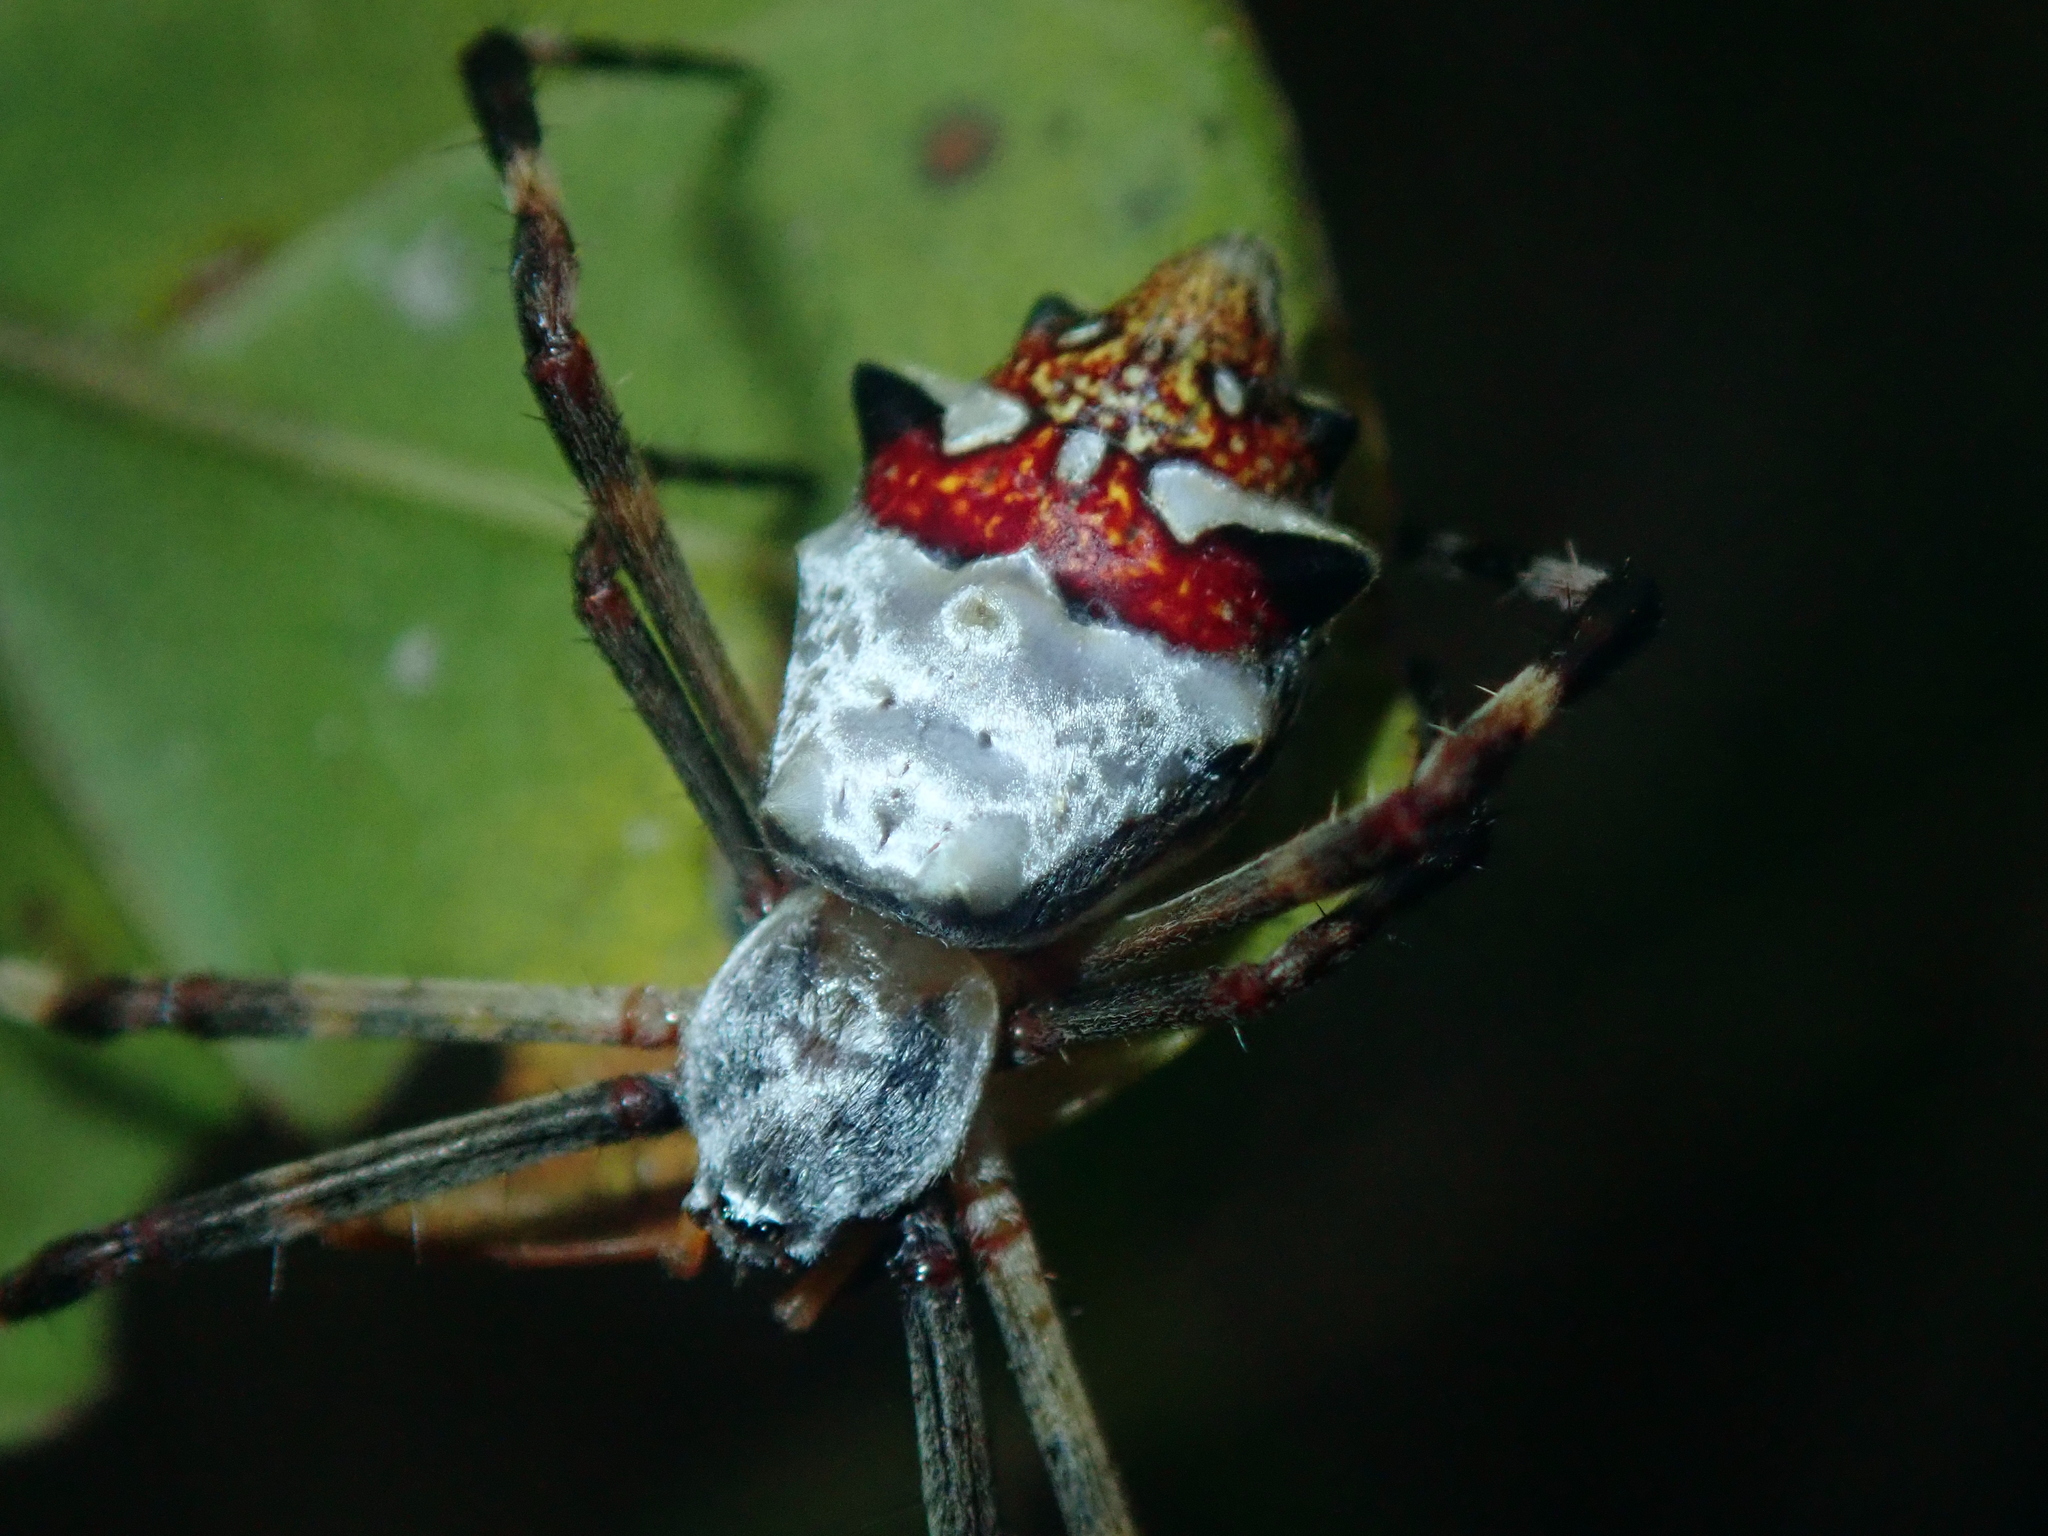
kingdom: Animalia
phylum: Arthropoda
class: Arachnida
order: Araneae
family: Araneidae
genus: Argiope
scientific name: Argiope argentata
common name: Orb weavers
